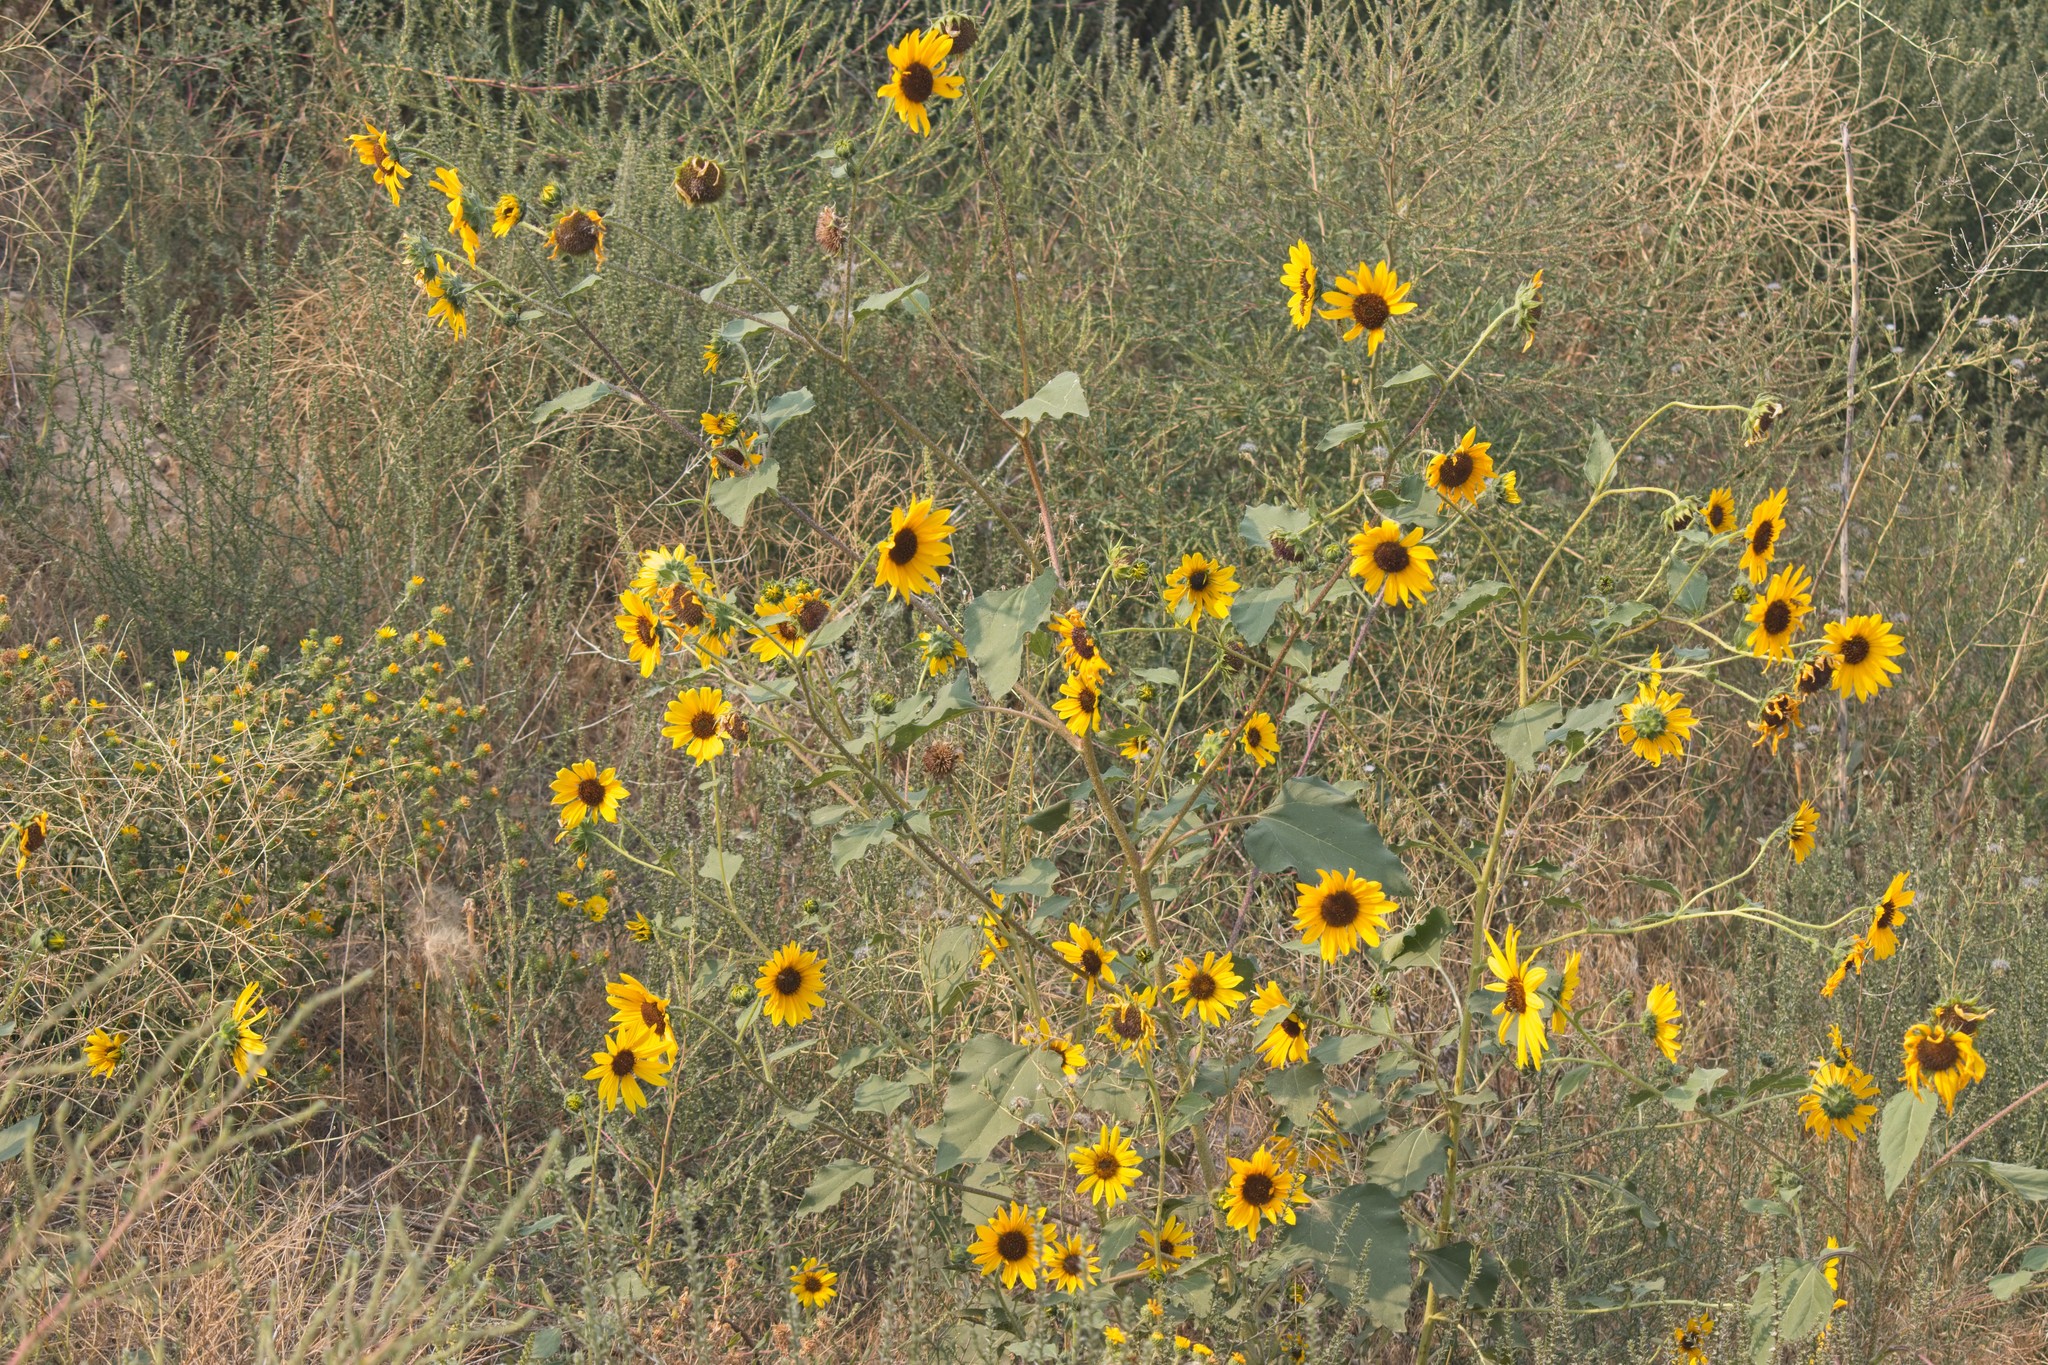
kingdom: Plantae
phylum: Tracheophyta
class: Magnoliopsida
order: Asterales
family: Asteraceae
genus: Helianthus
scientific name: Helianthus annuus
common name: Sunflower
